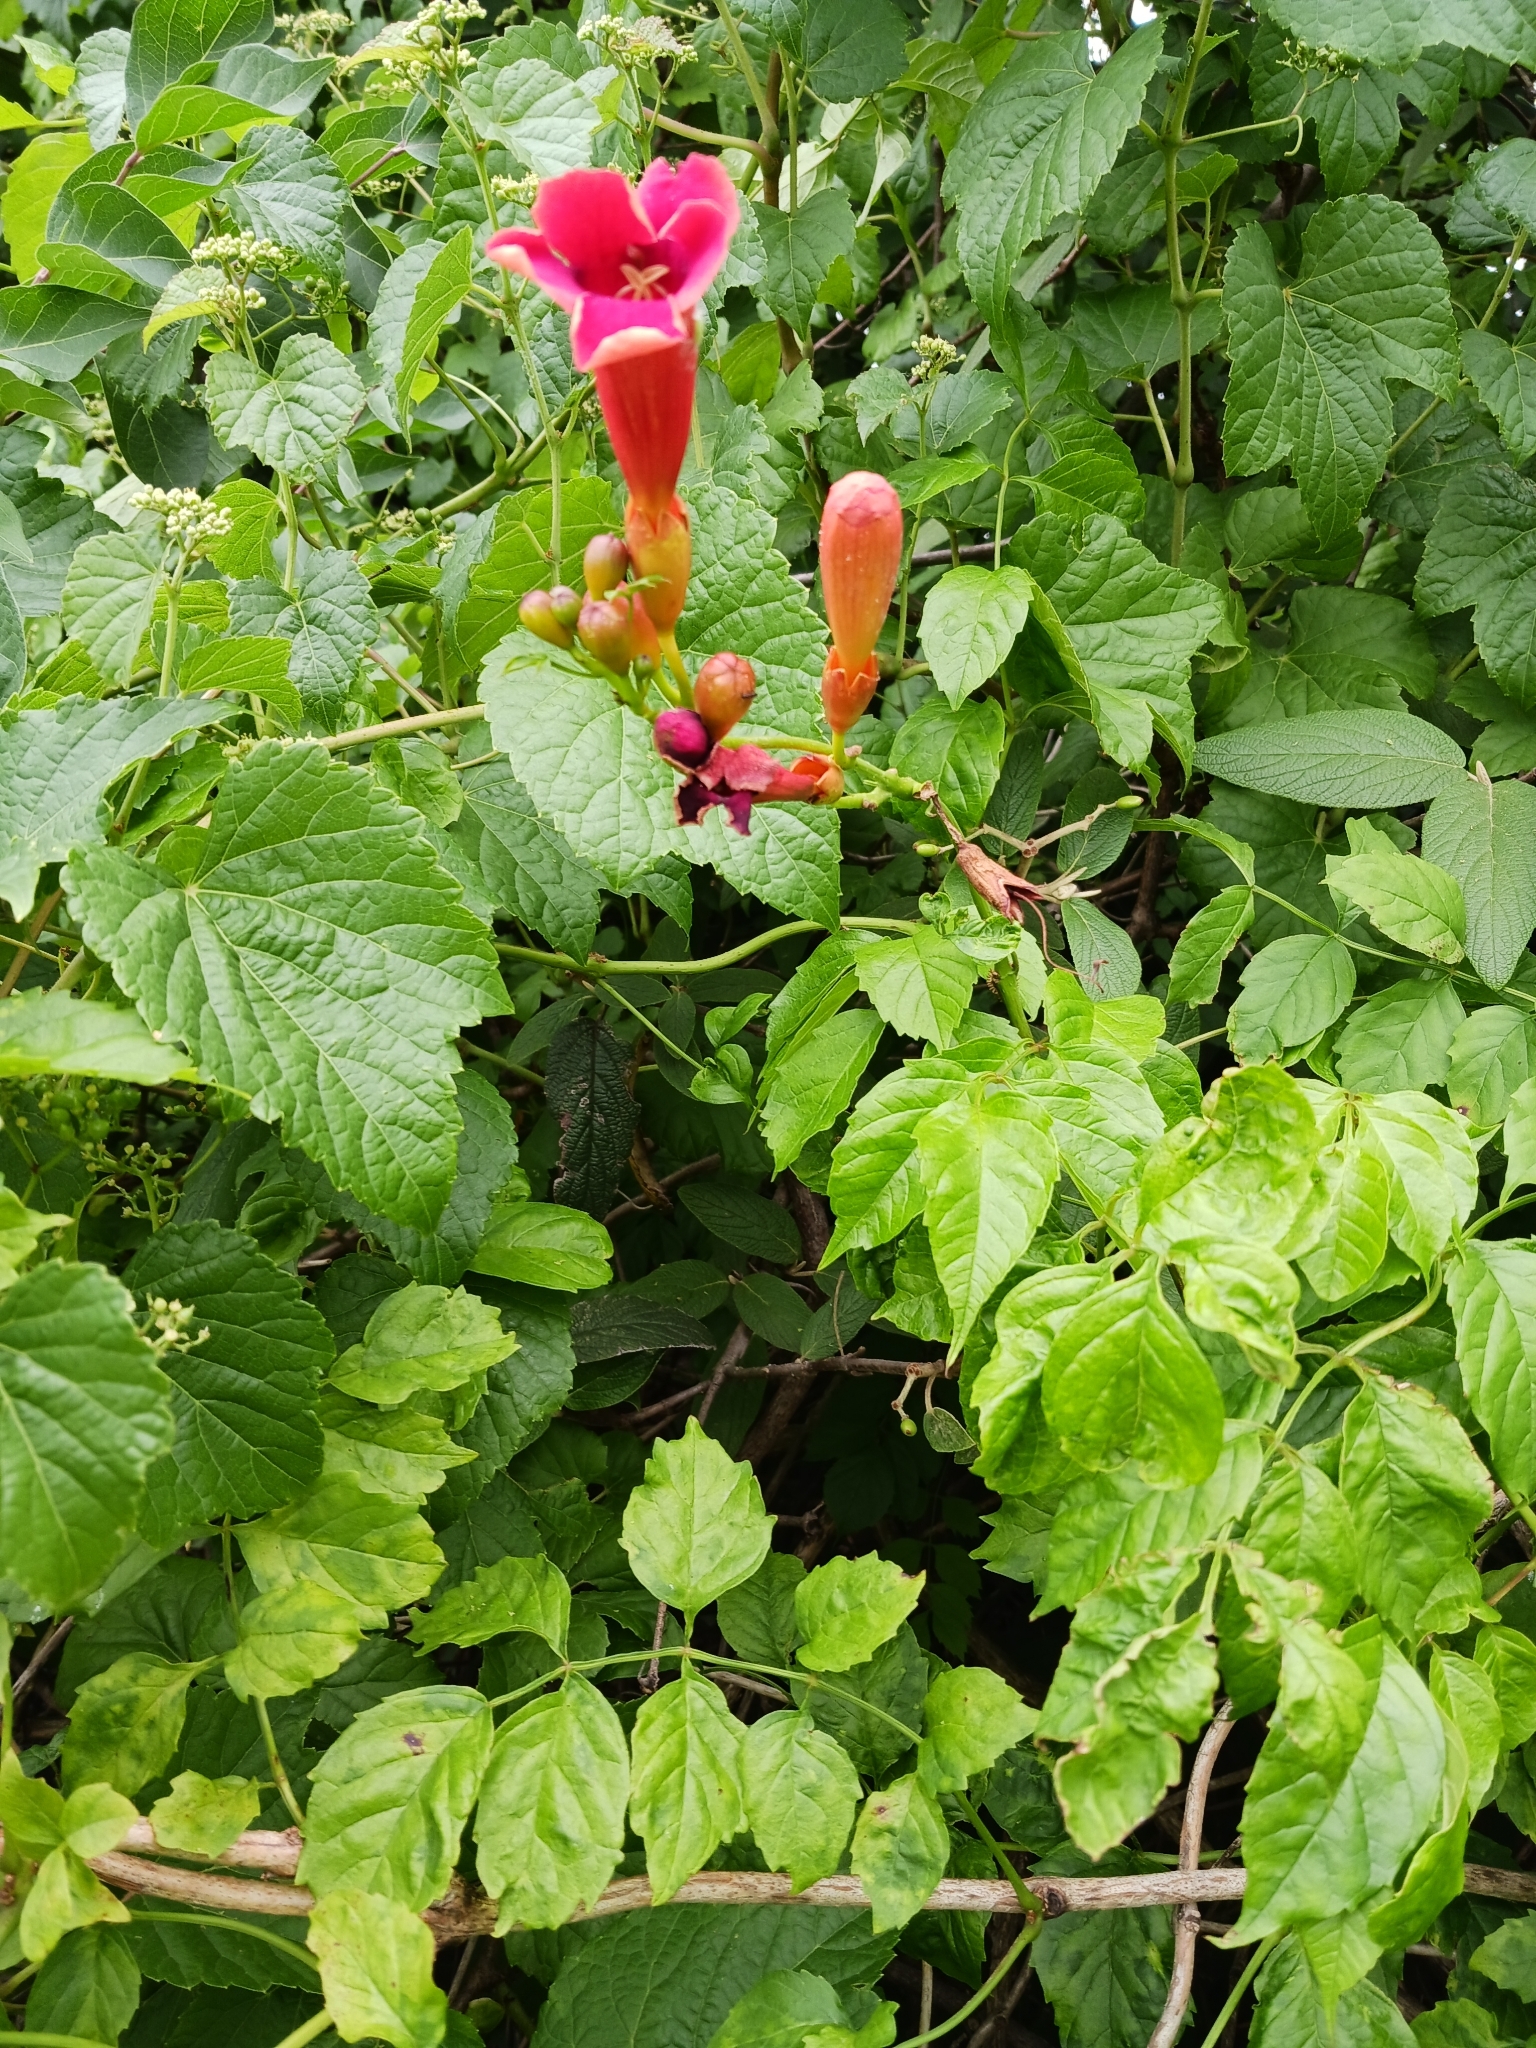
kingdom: Plantae
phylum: Tracheophyta
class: Magnoliopsida
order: Lamiales
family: Bignoniaceae
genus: Campsis
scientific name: Campsis radicans
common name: Trumpet-creeper
